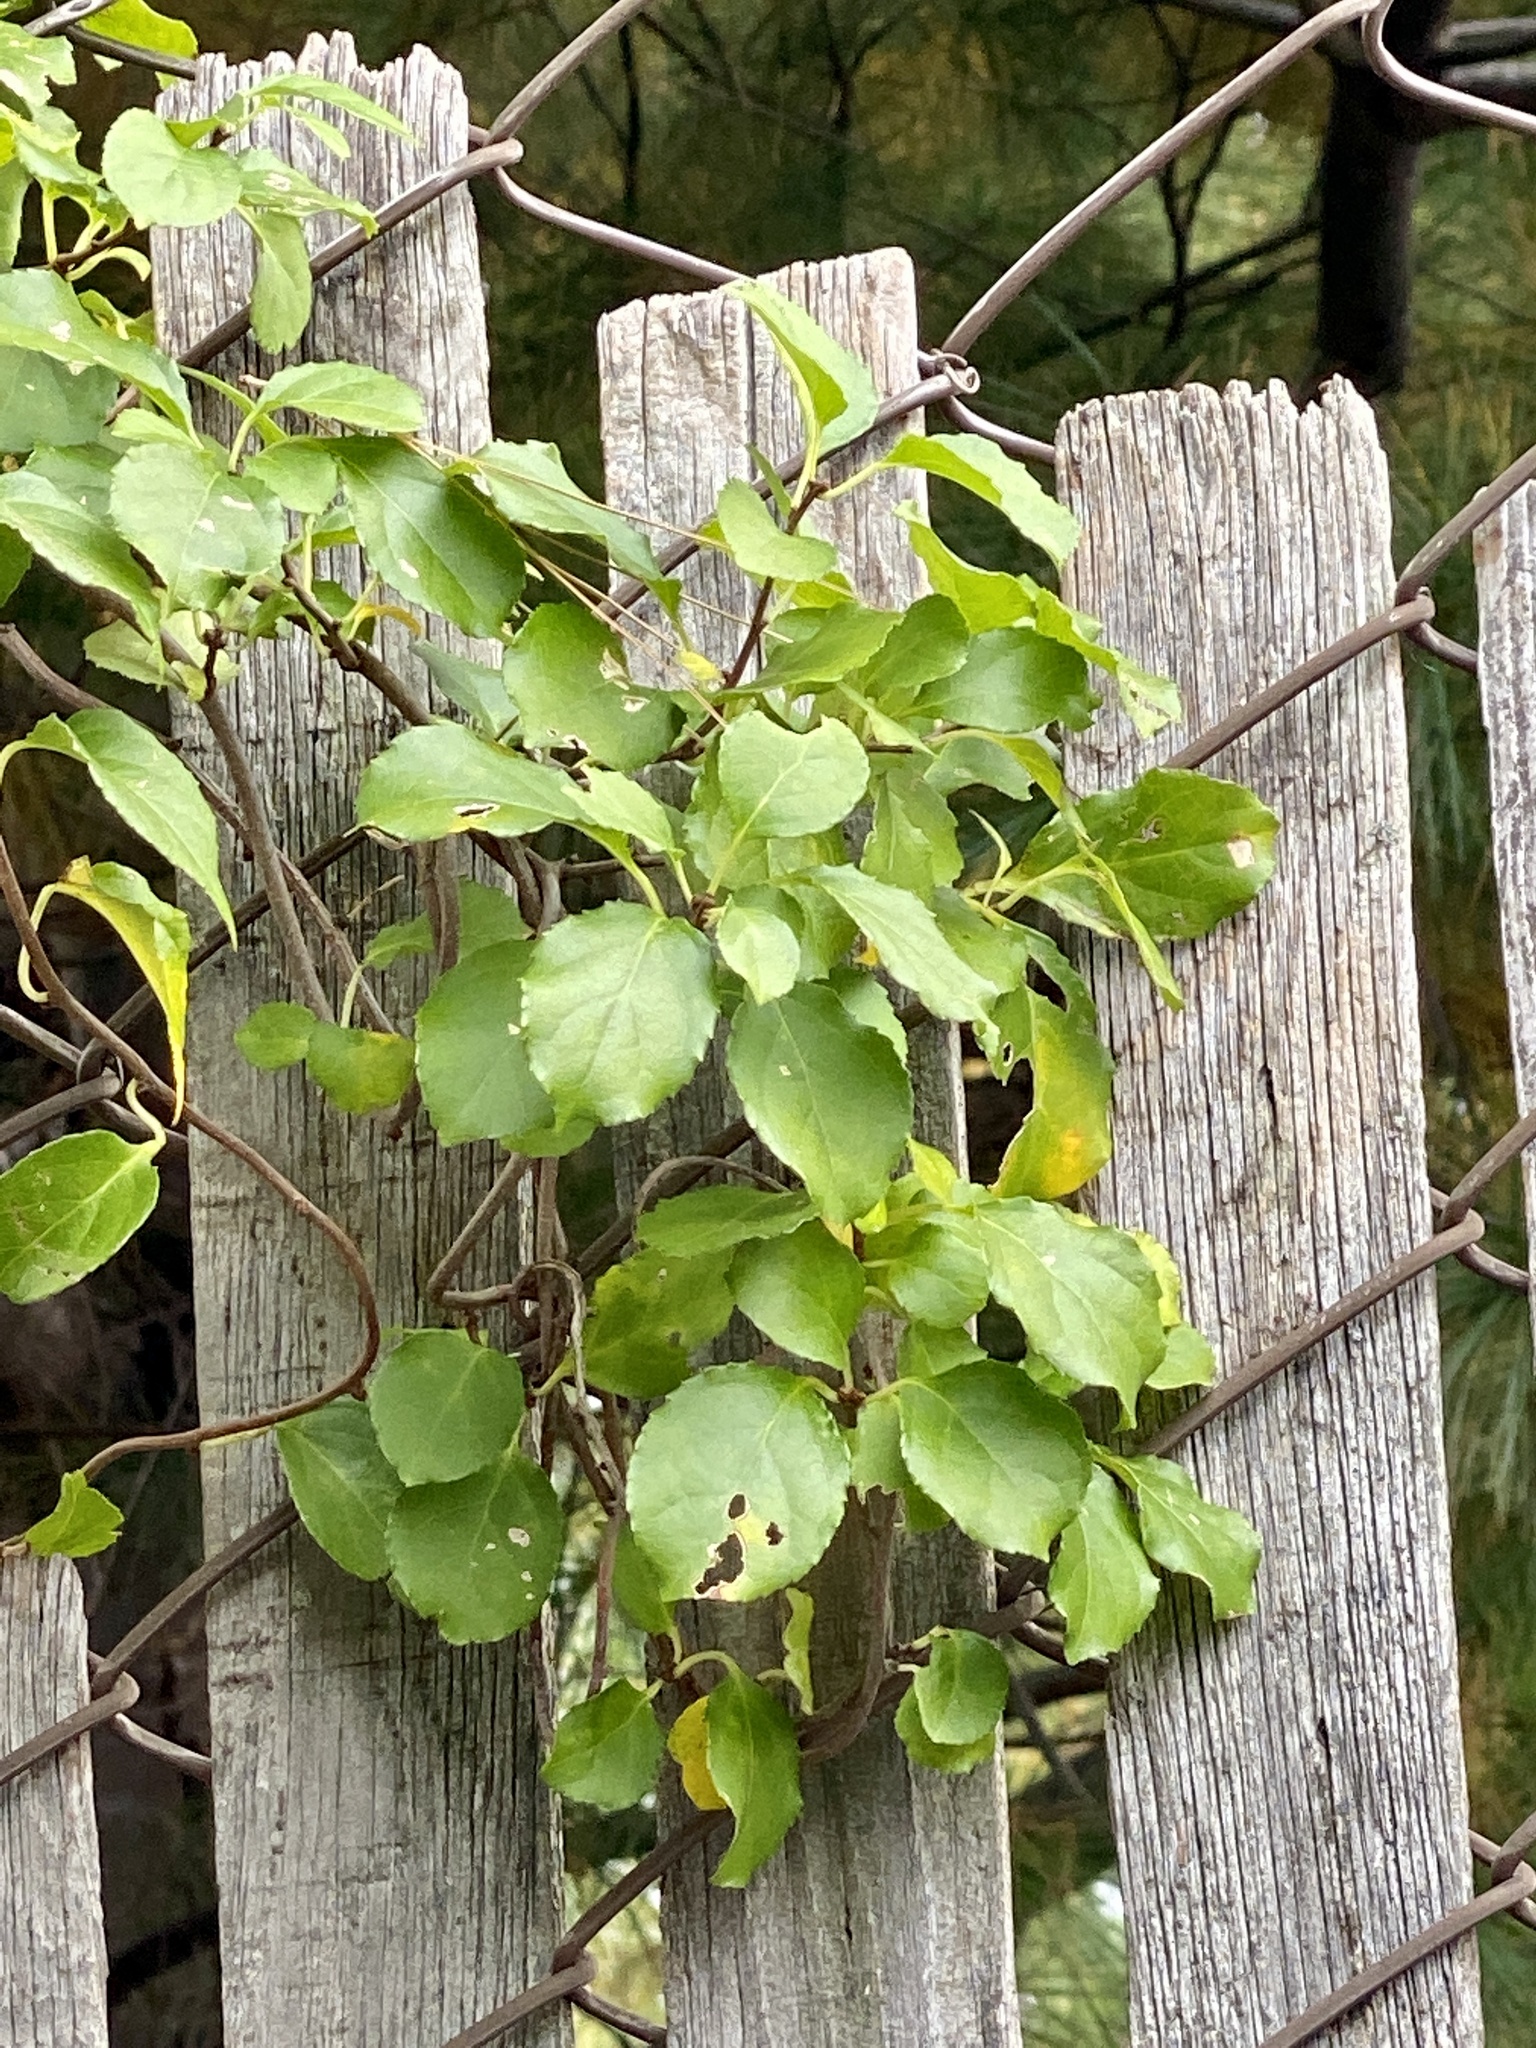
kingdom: Plantae
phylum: Tracheophyta
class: Magnoliopsida
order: Celastrales
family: Celastraceae
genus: Celastrus
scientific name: Celastrus orbiculatus
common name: Oriental bittersweet
